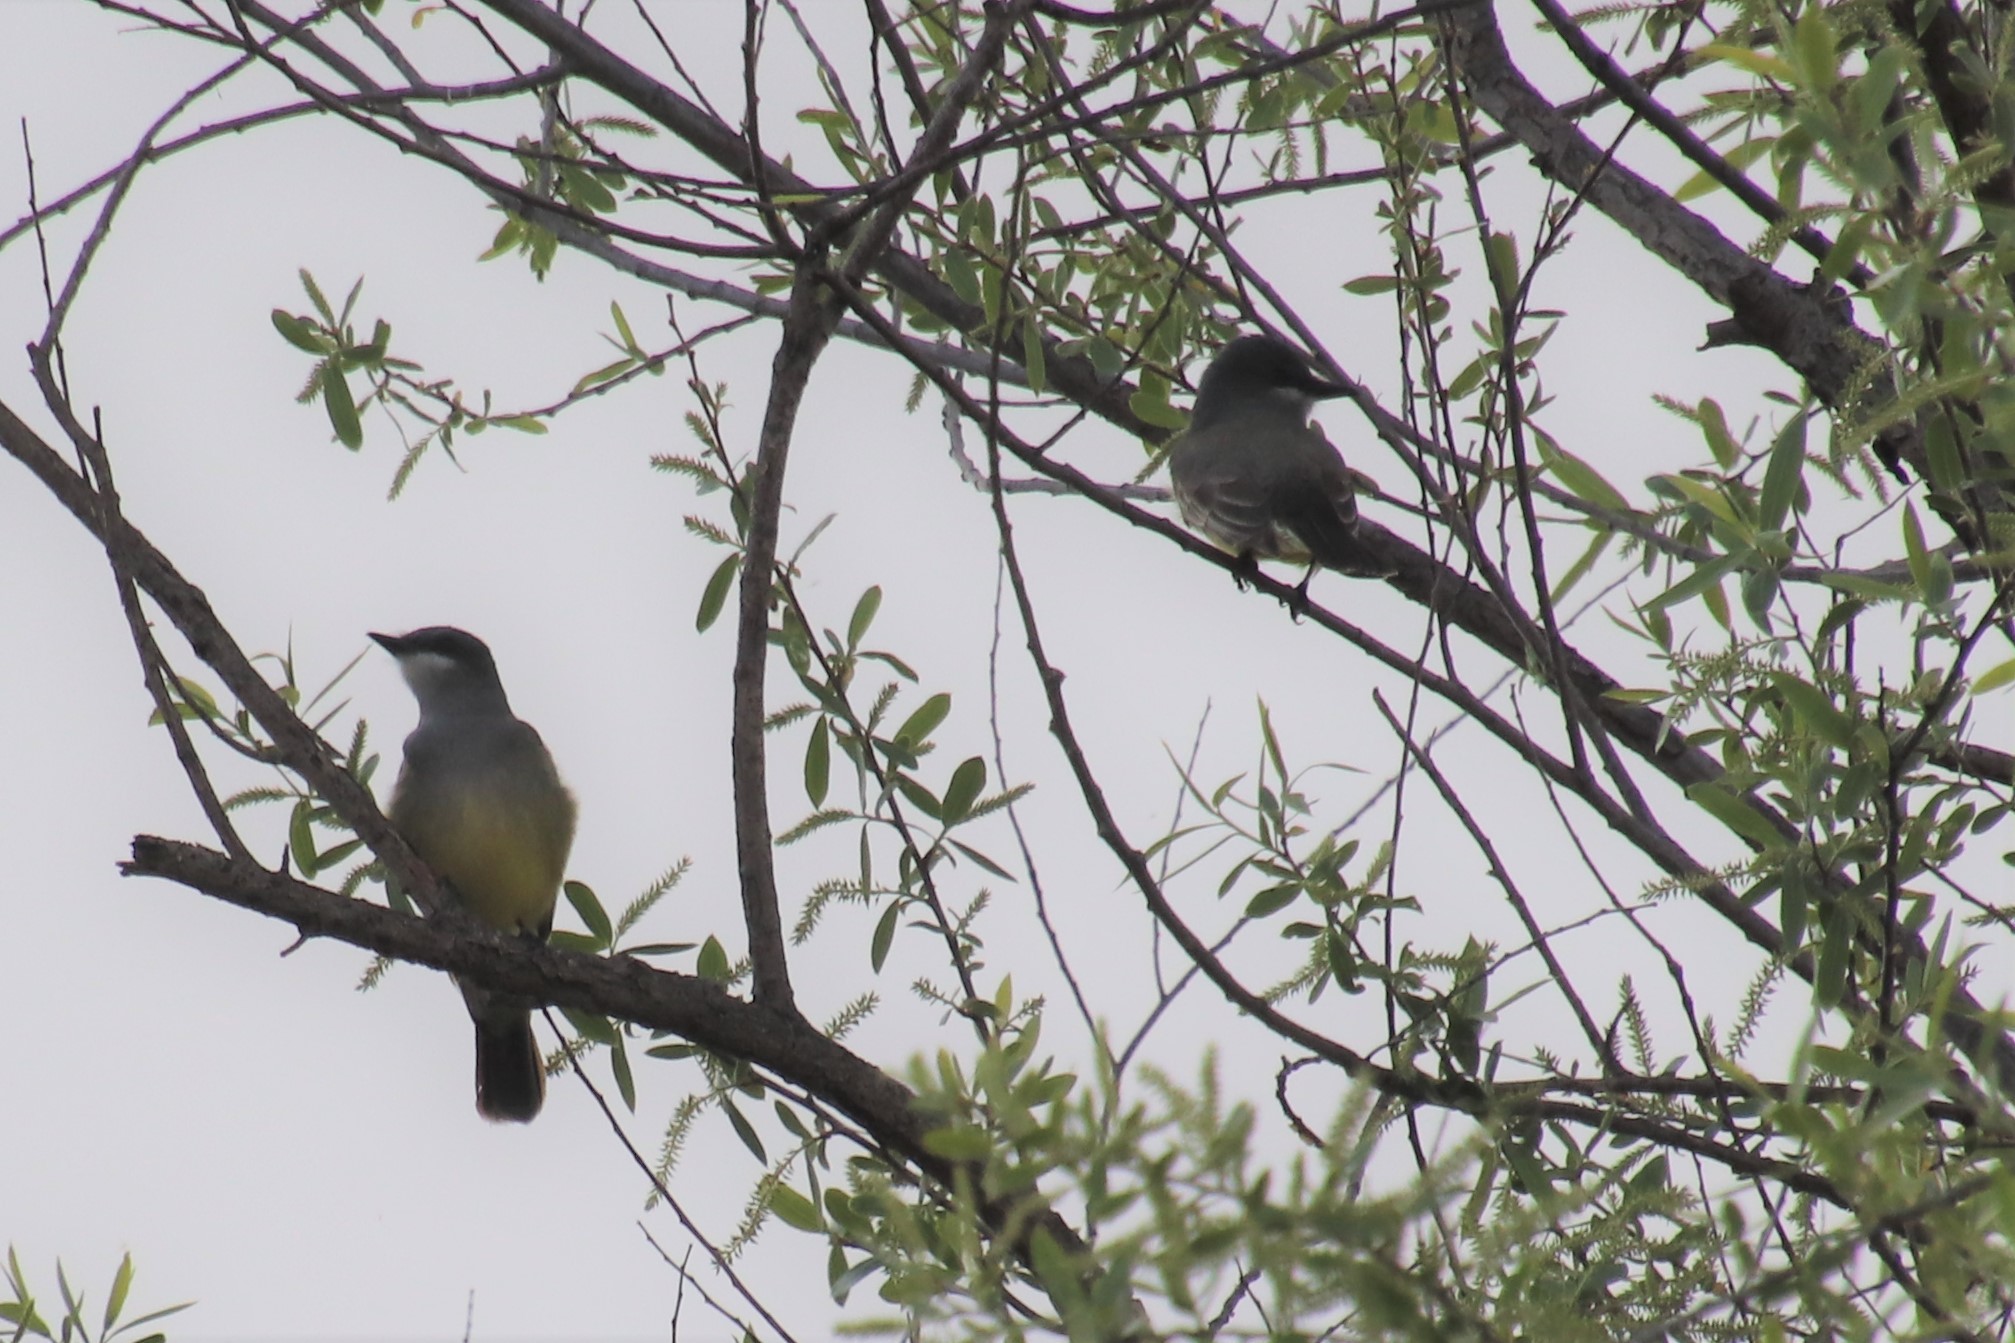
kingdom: Animalia
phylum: Chordata
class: Aves
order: Passeriformes
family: Tyrannidae
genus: Tyrannus
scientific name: Tyrannus vociferans
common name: Cassin's kingbird
